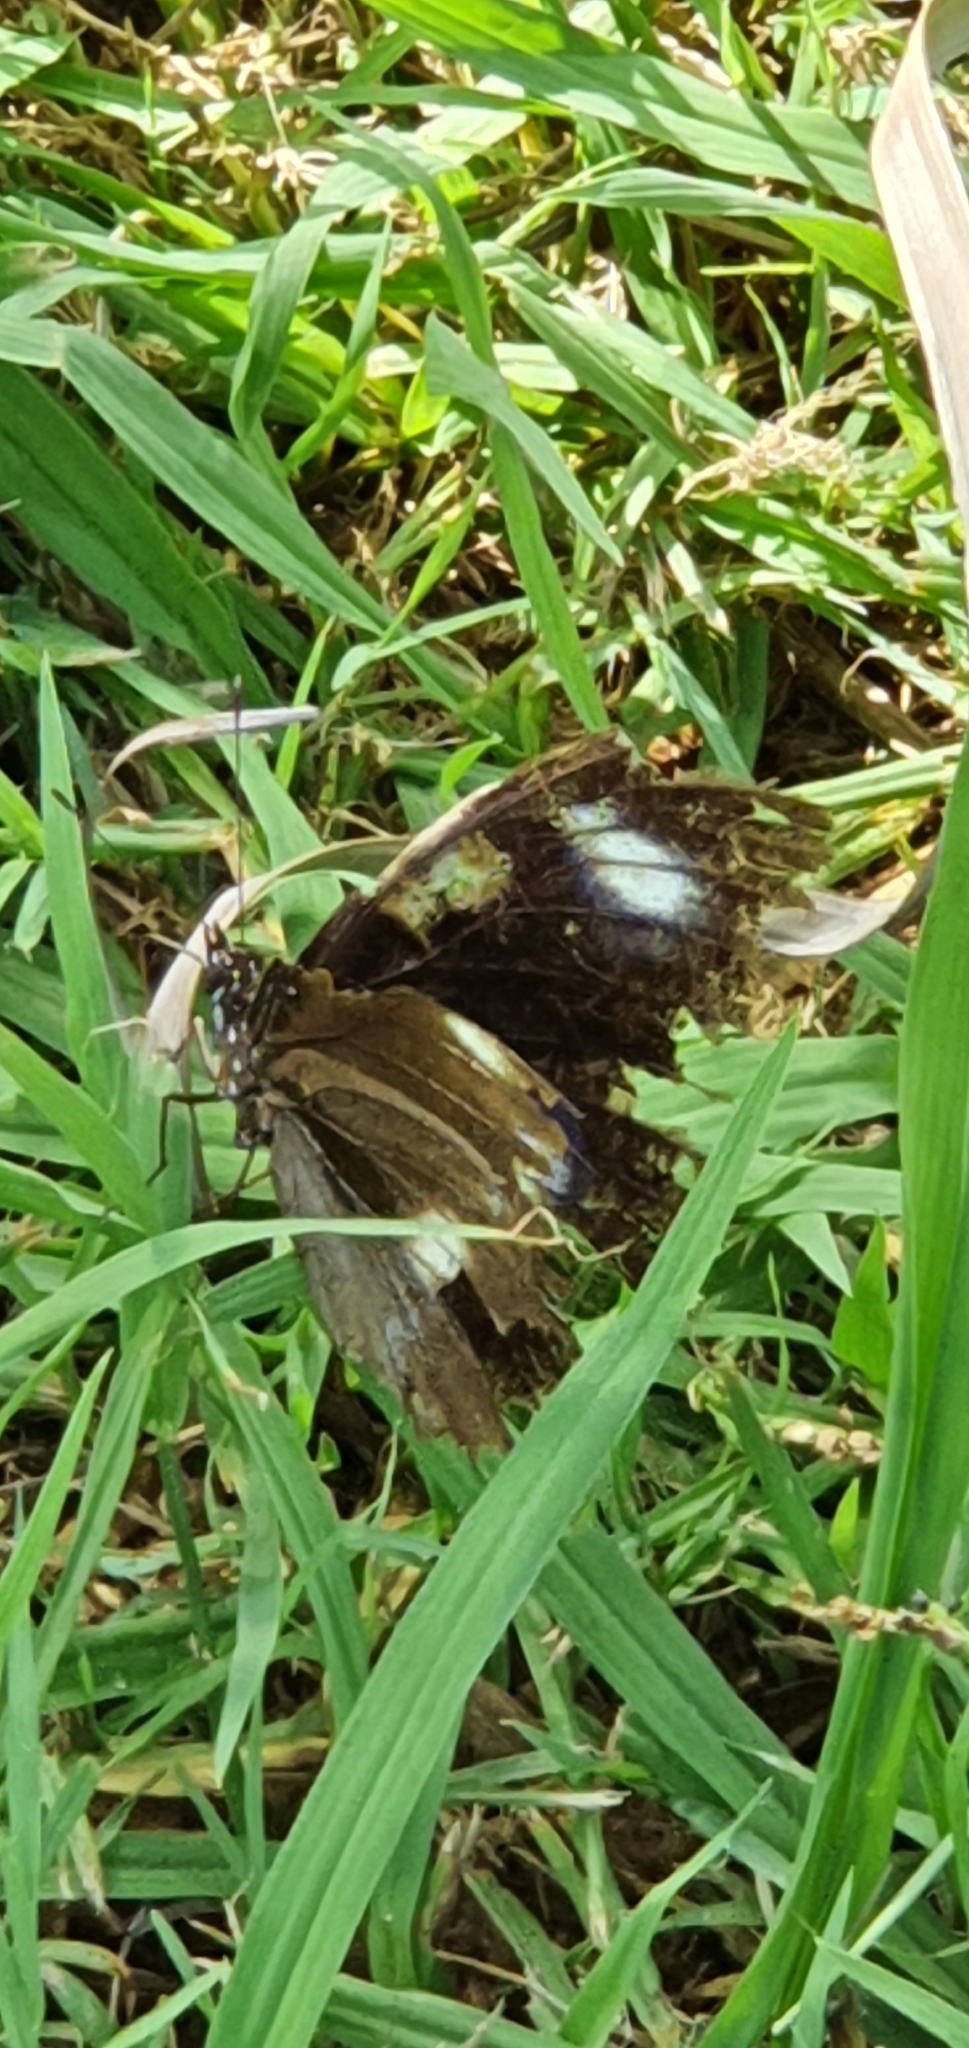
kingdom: Animalia
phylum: Arthropoda
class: Insecta
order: Lepidoptera
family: Nymphalidae
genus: Hypolimnas
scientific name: Hypolimnas bolina
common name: Great eggfly
